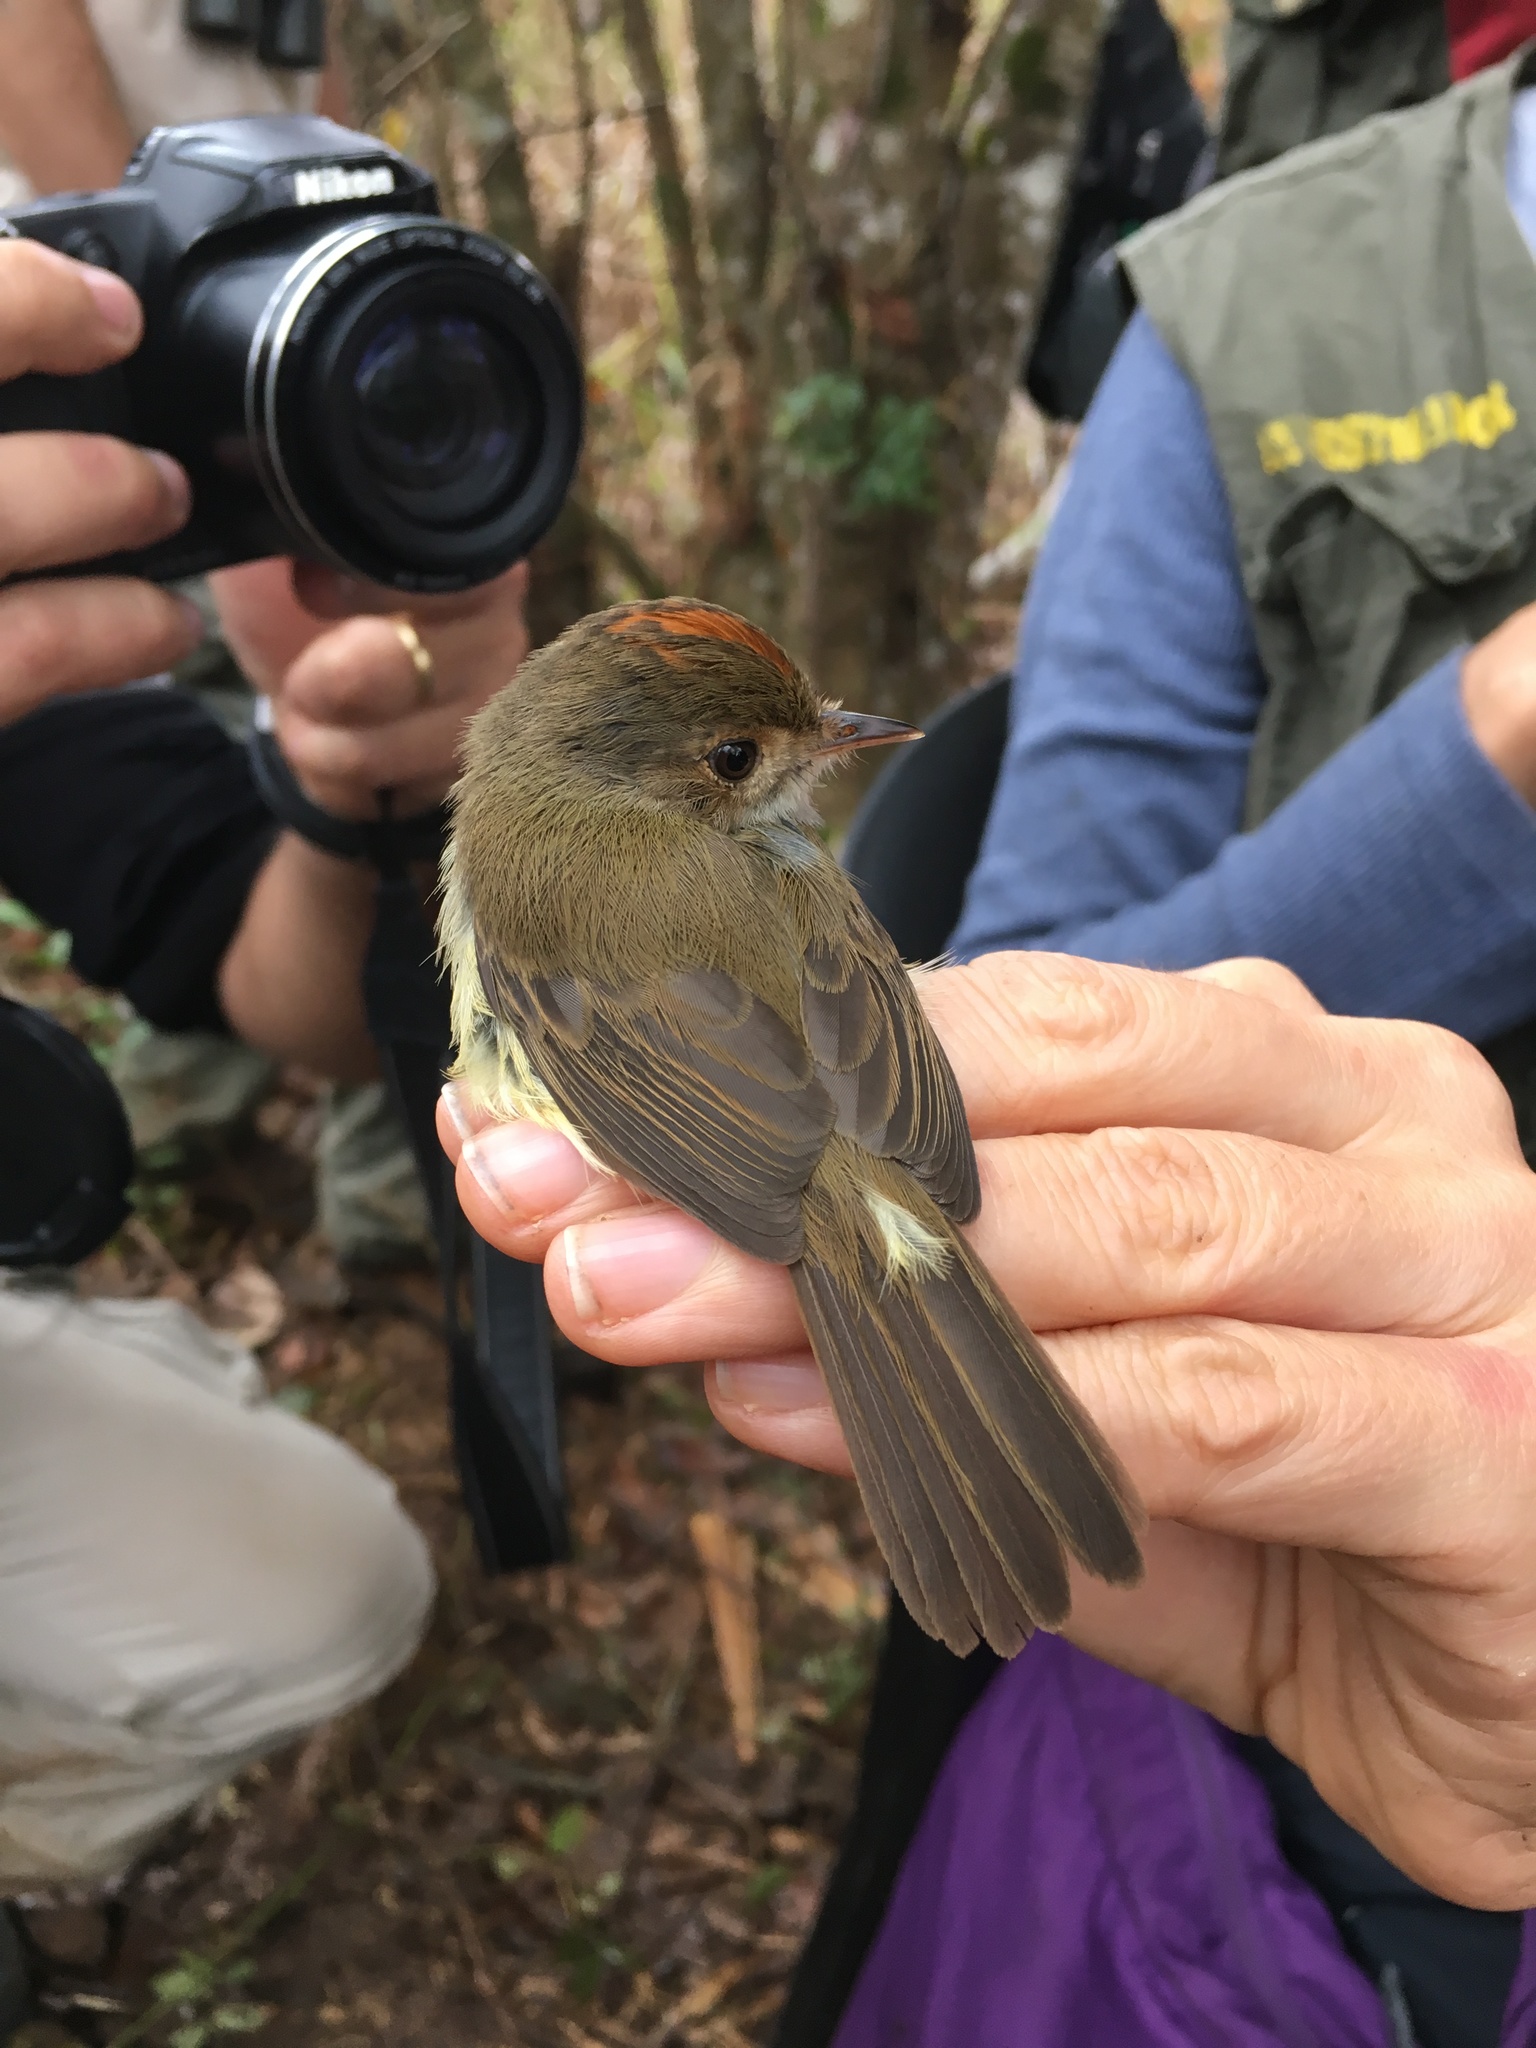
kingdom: Animalia
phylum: Chordata
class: Aves
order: Passeriformes
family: Tyrannidae
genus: Euscarthmus
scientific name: Euscarthmus meloryphus
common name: Tawny-crowned pygmy tyrant
